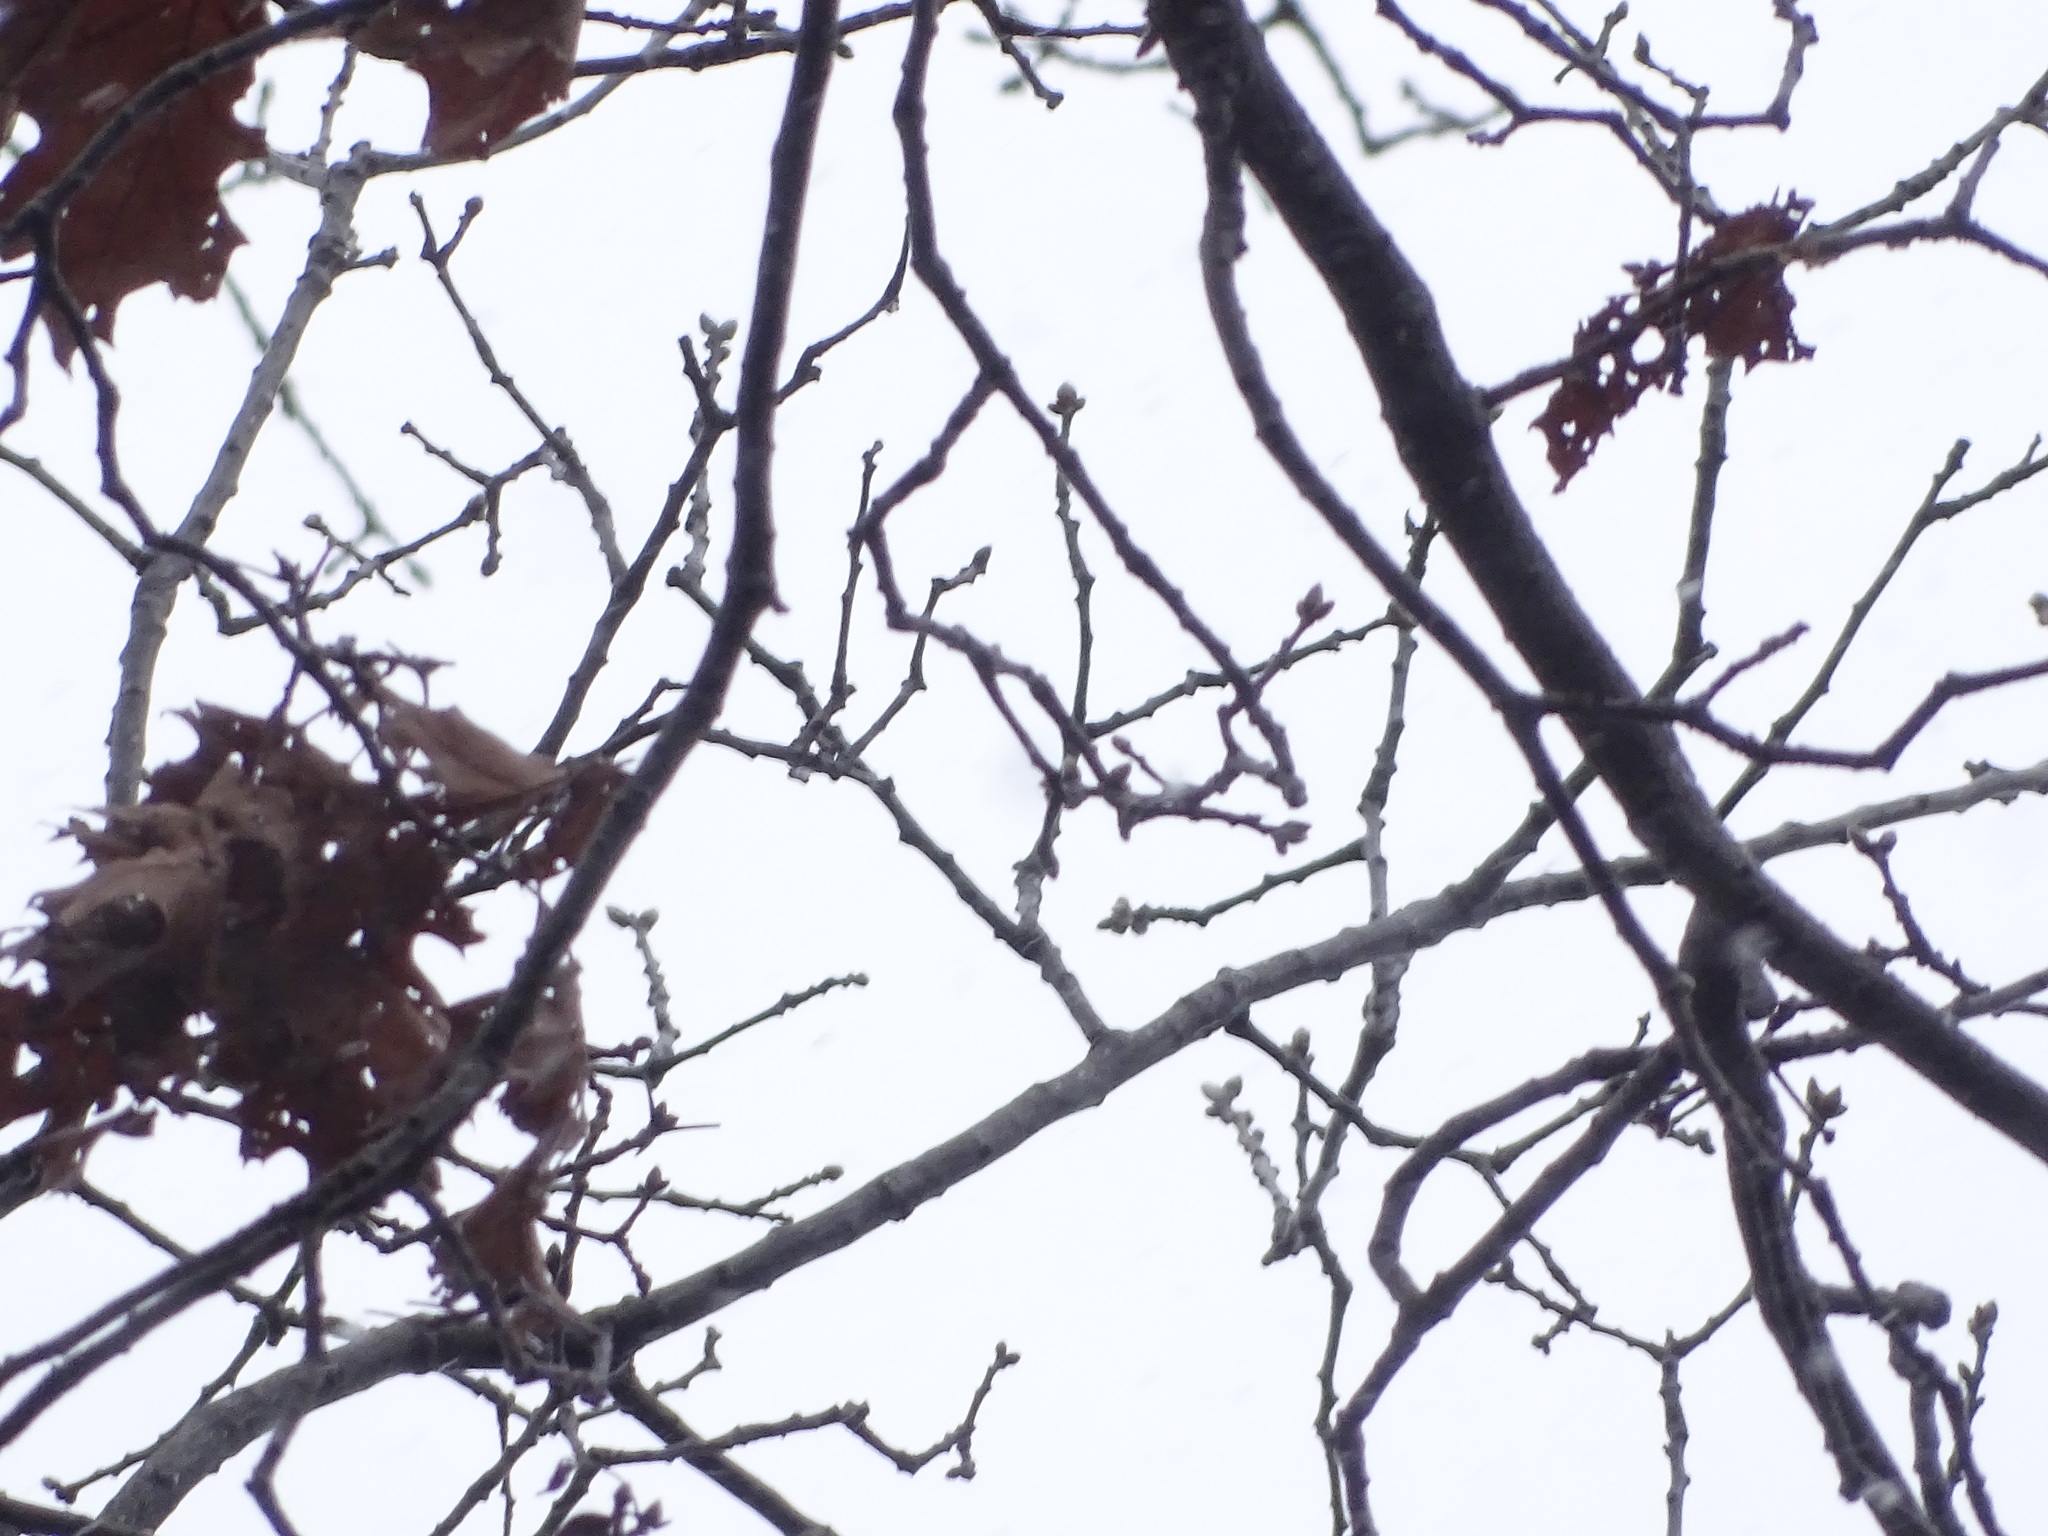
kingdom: Plantae
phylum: Tracheophyta
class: Magnoliopsida
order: Fagales
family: Fagaceae
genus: Quercus
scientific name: Quercus velutina
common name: Black oak
